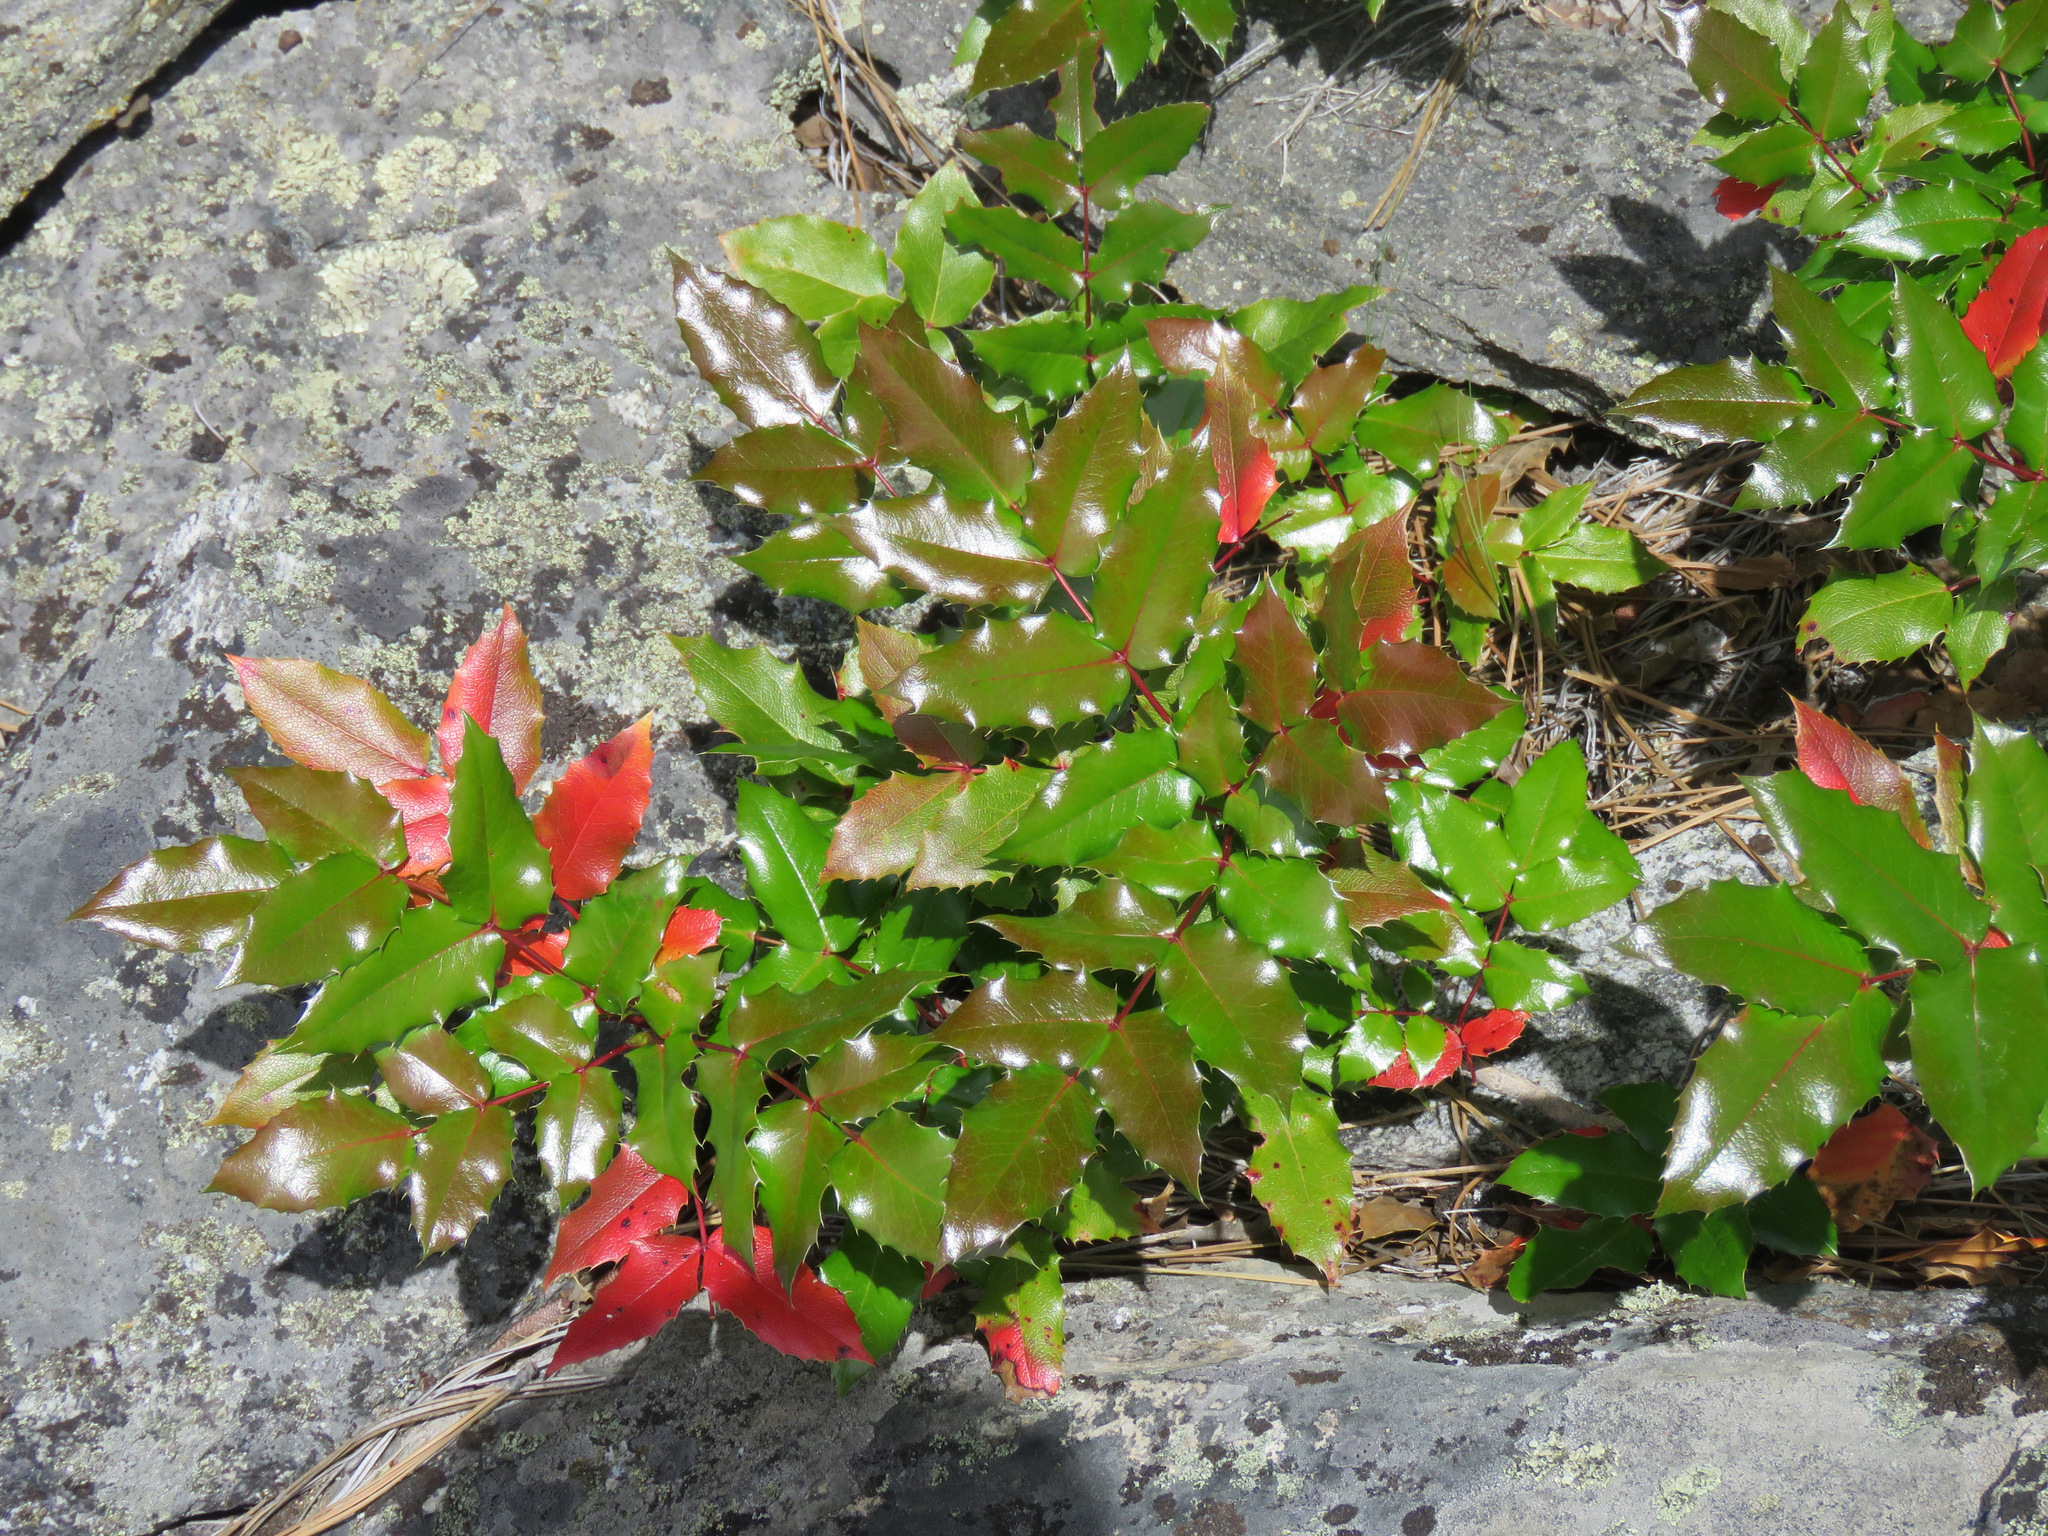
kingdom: Plantae
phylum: Tracheophyta
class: Magnoliopsida
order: Ranunculales
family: Berberidaceae
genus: Mahonia
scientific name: Mahonia aquifolium
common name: Oregon-grape
